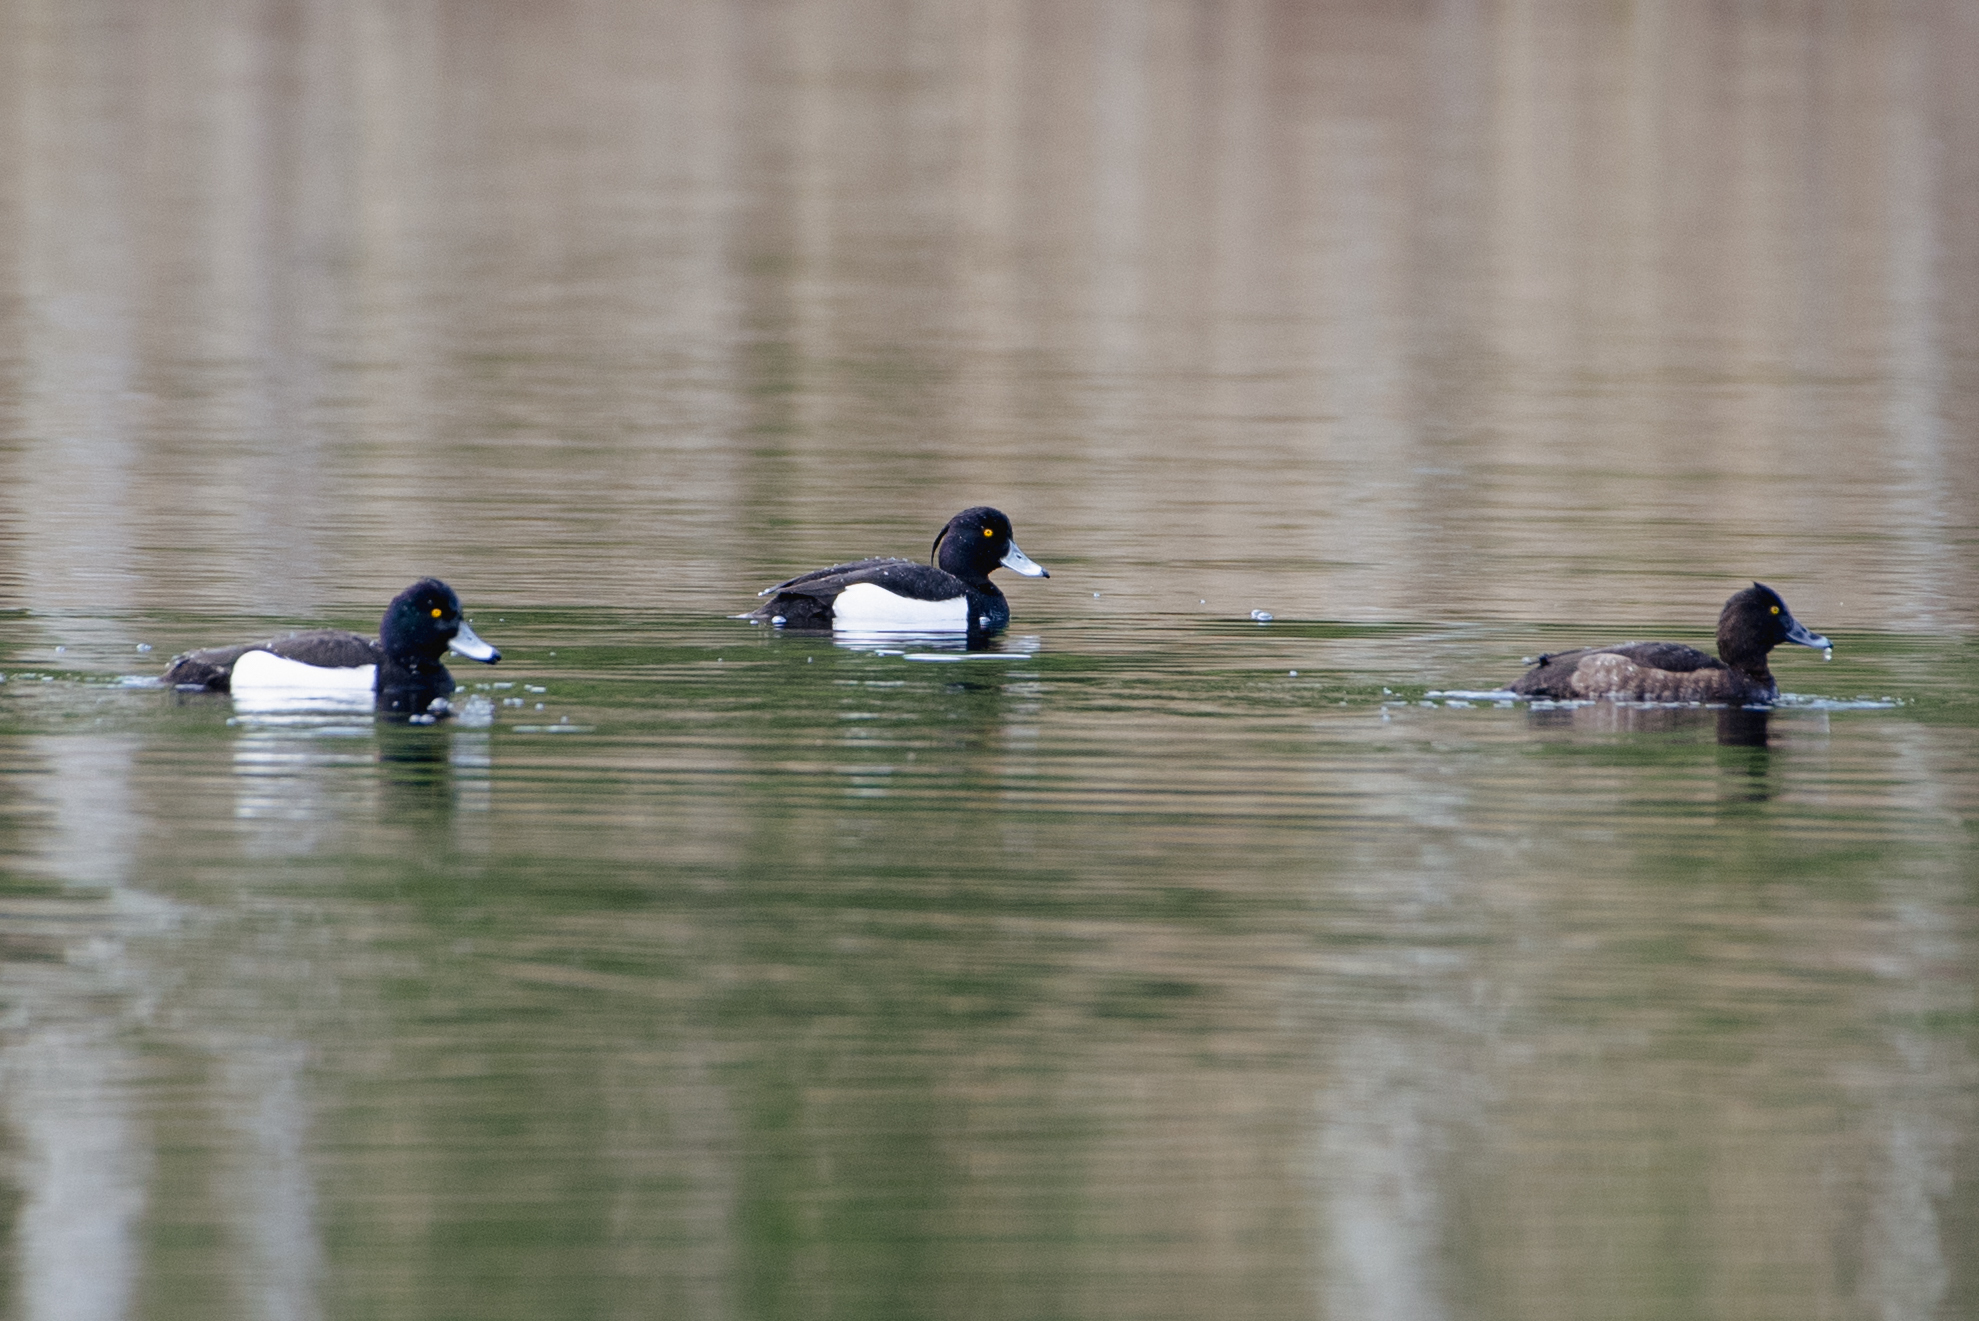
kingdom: Animalia
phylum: Chordata
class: Aves
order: Anseriformes
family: Anatidae
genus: Aythya
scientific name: Aythya fuligula
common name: Tufted duck
